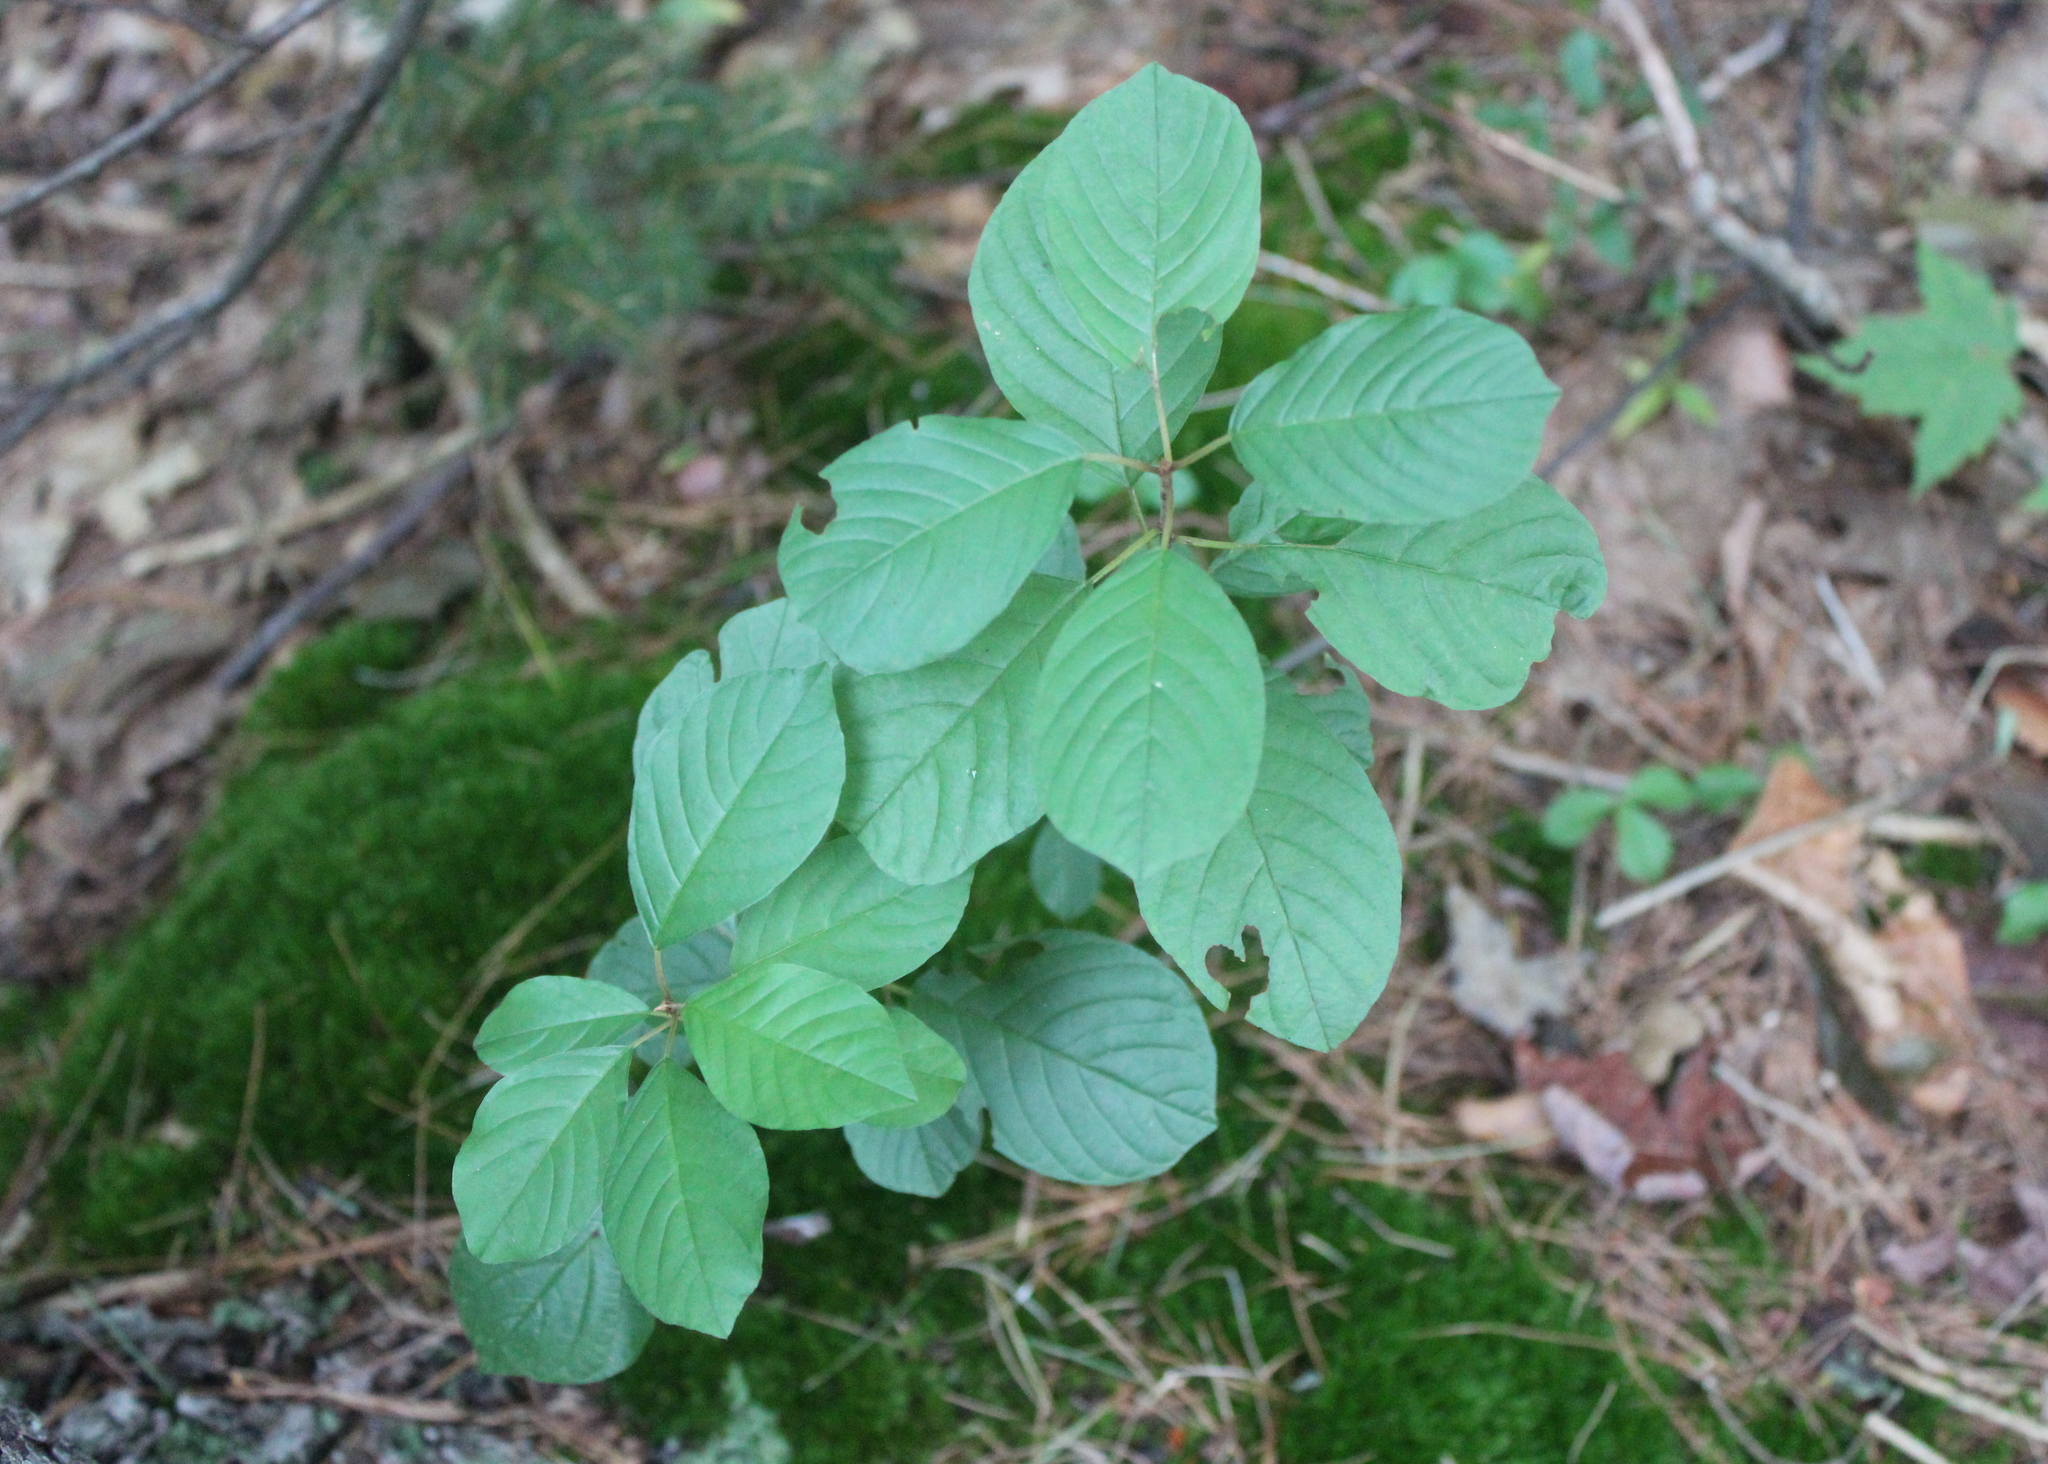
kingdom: Plantae
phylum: Tracheophyta
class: Magnoliopsida
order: Rosales
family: Rhamnaceae
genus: Frangula
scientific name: Frangula alnus
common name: Alder buckthorn
